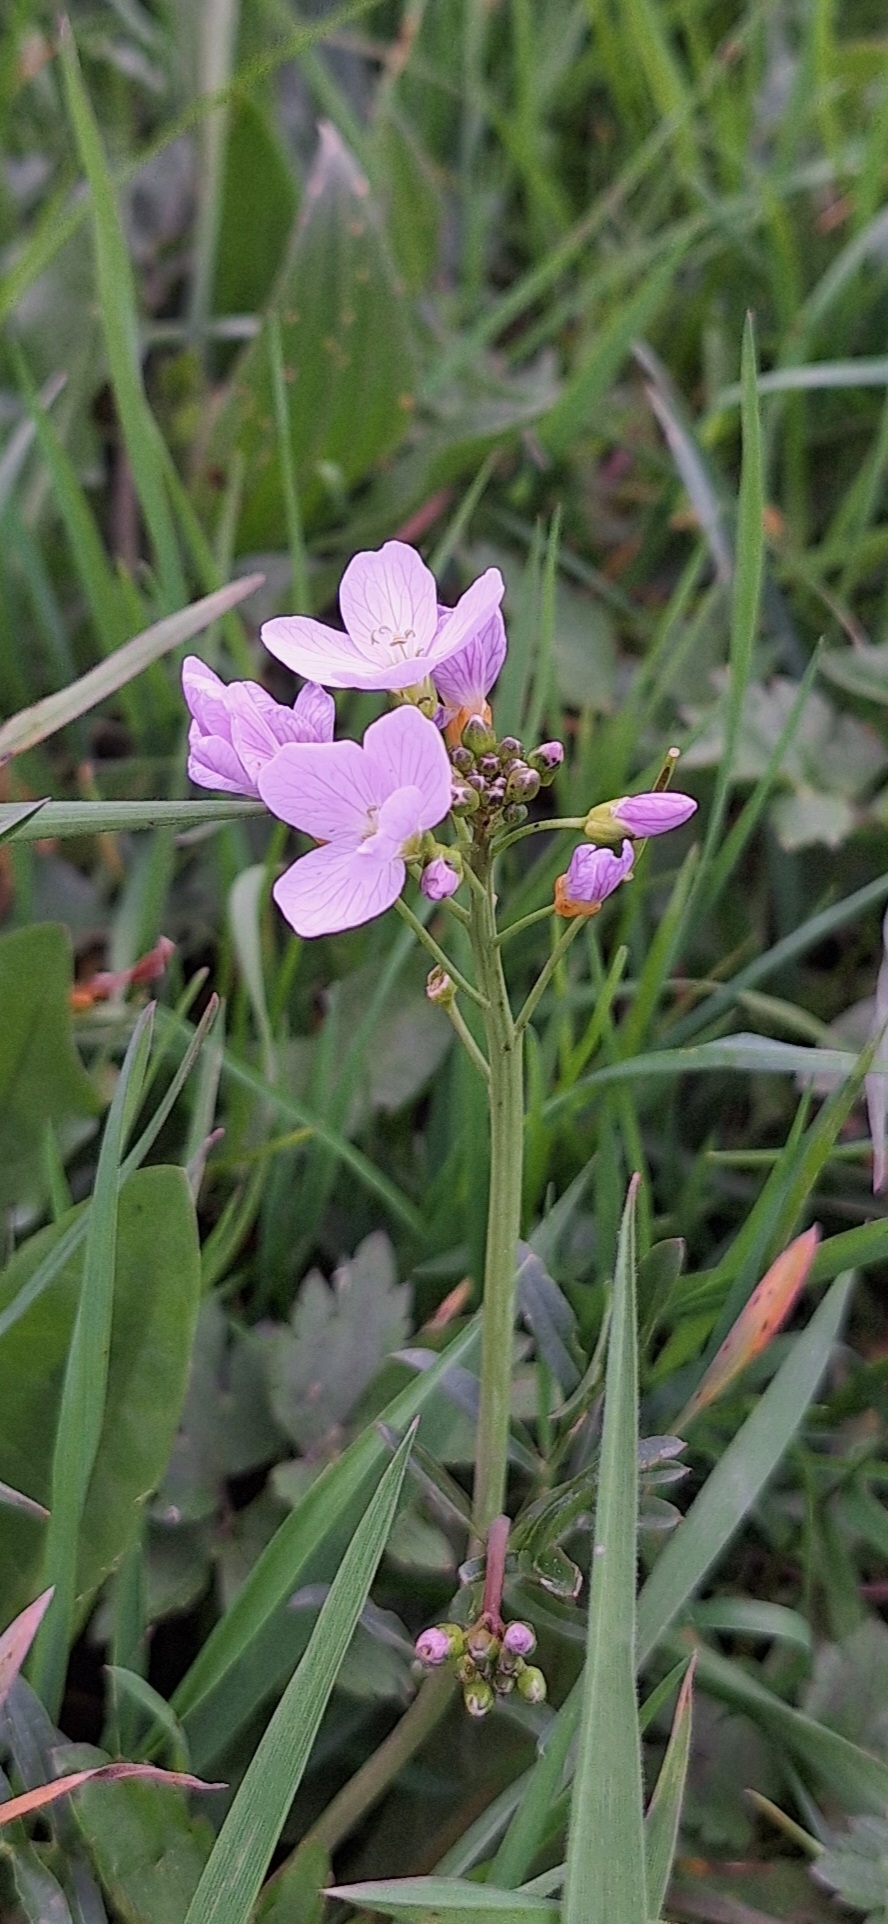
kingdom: Plantae
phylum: Tracheophyta
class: Magnoliopsida
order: Brassicales
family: Brassicaceae
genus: Cardamine
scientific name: Cardamine pratensis
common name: Cuckoo flower
